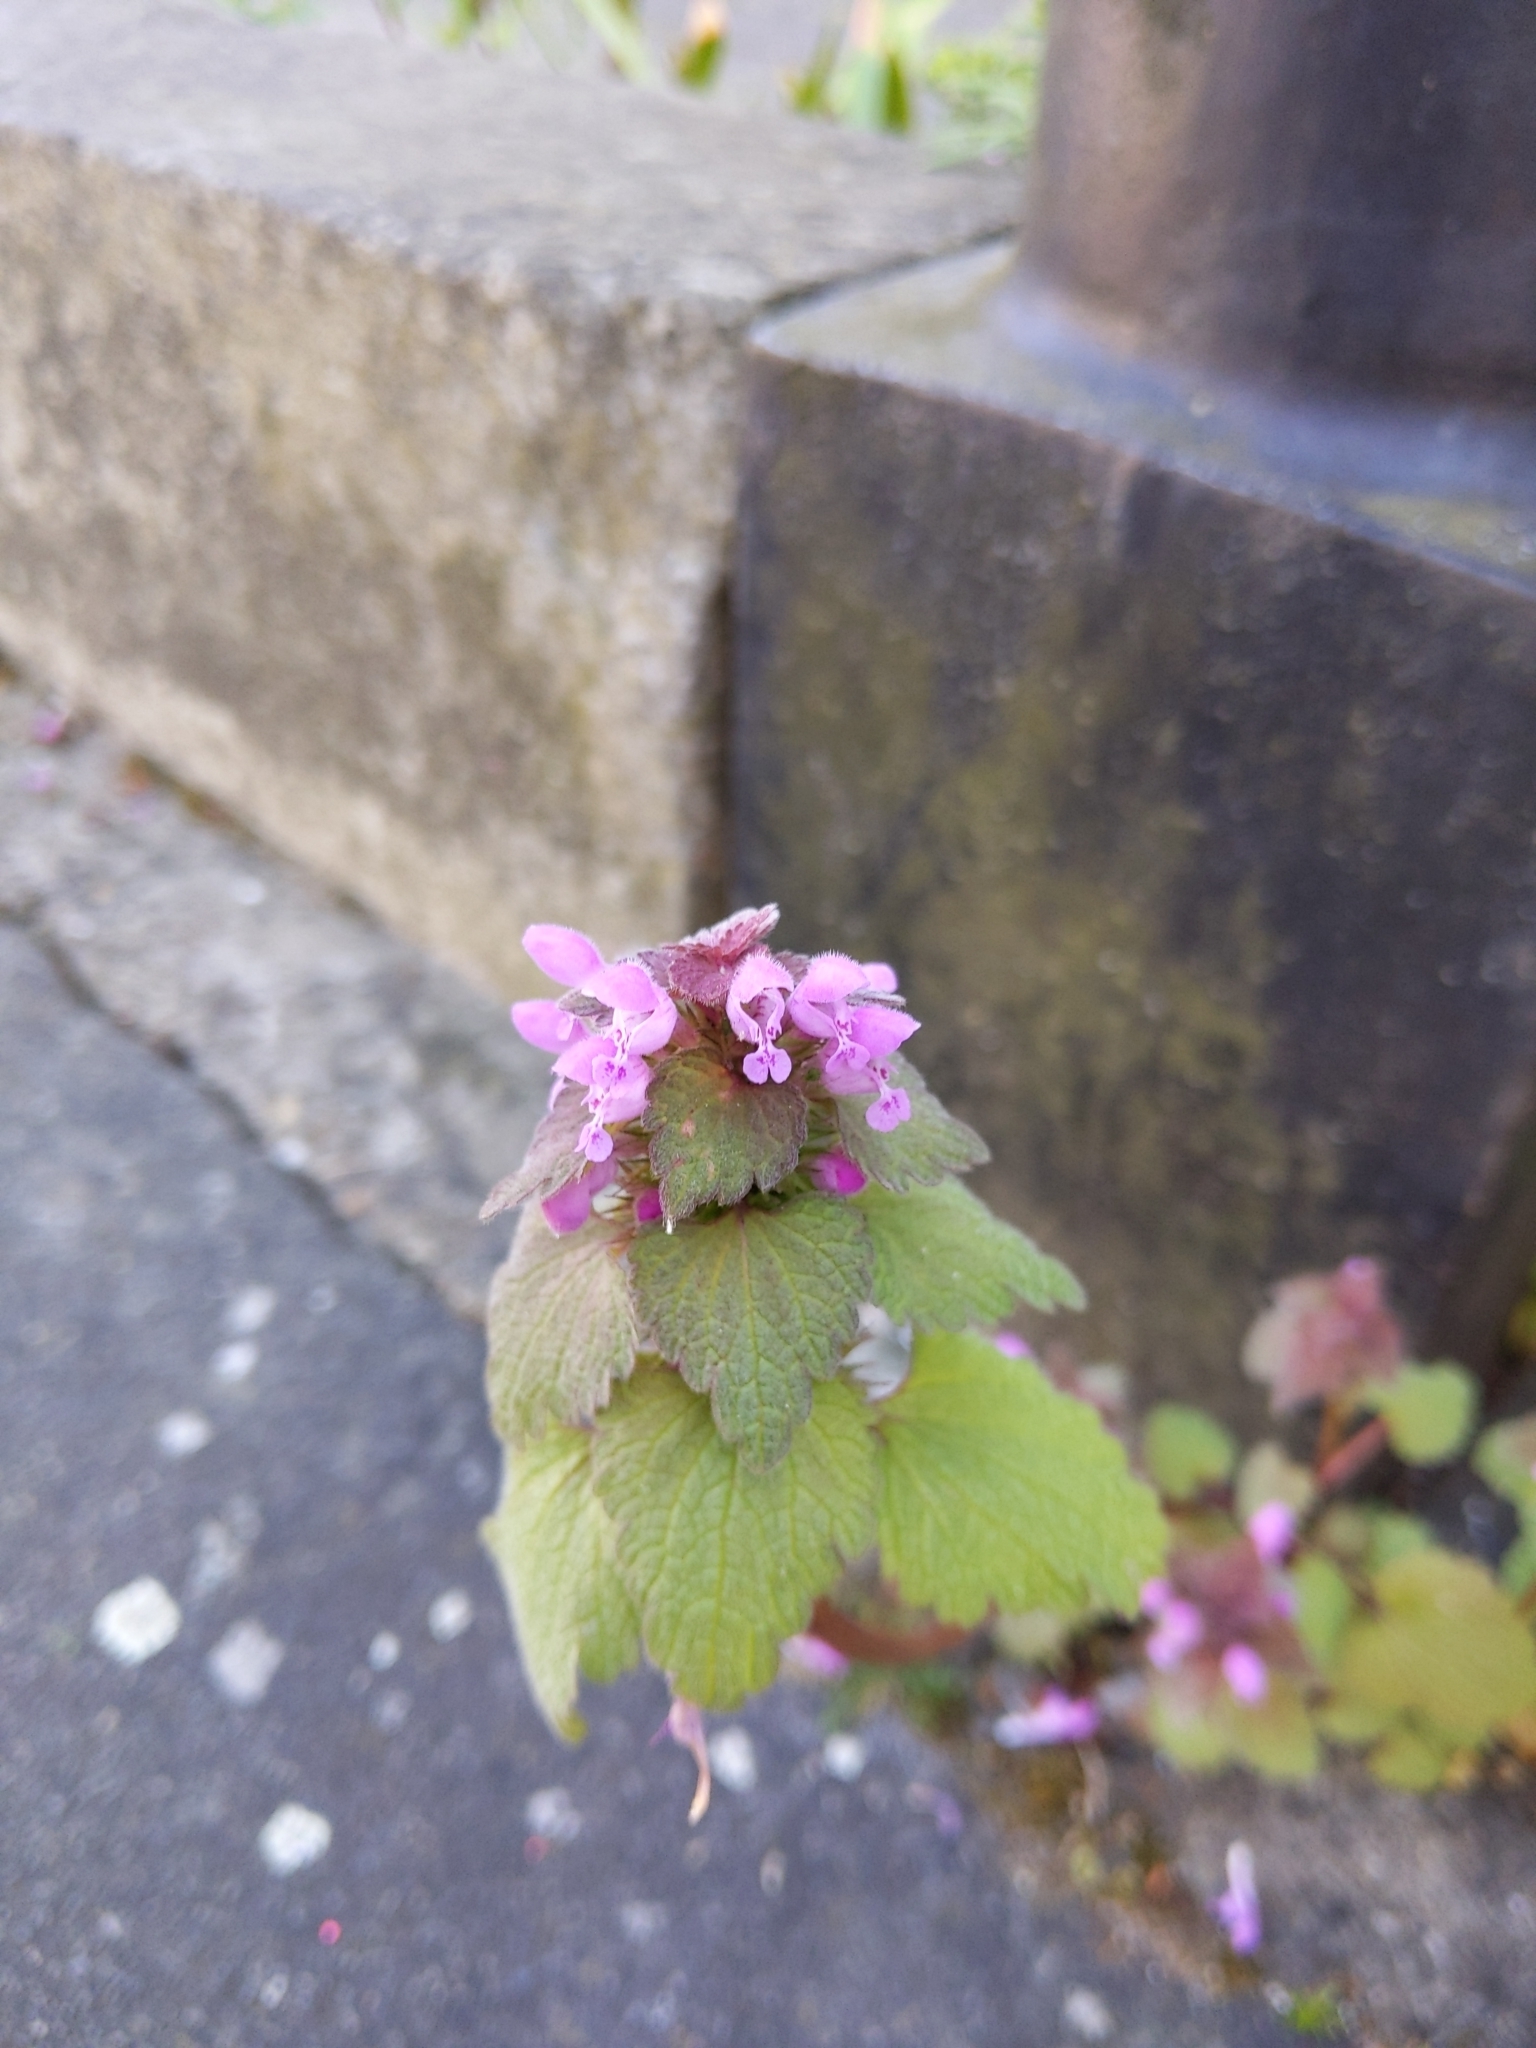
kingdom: Plantae
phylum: Tracheophyta
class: Magnoliopsida
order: Lamiales
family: Lamiaceae
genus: Lamium
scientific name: Lamium purpureum
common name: Red dead-nettle
